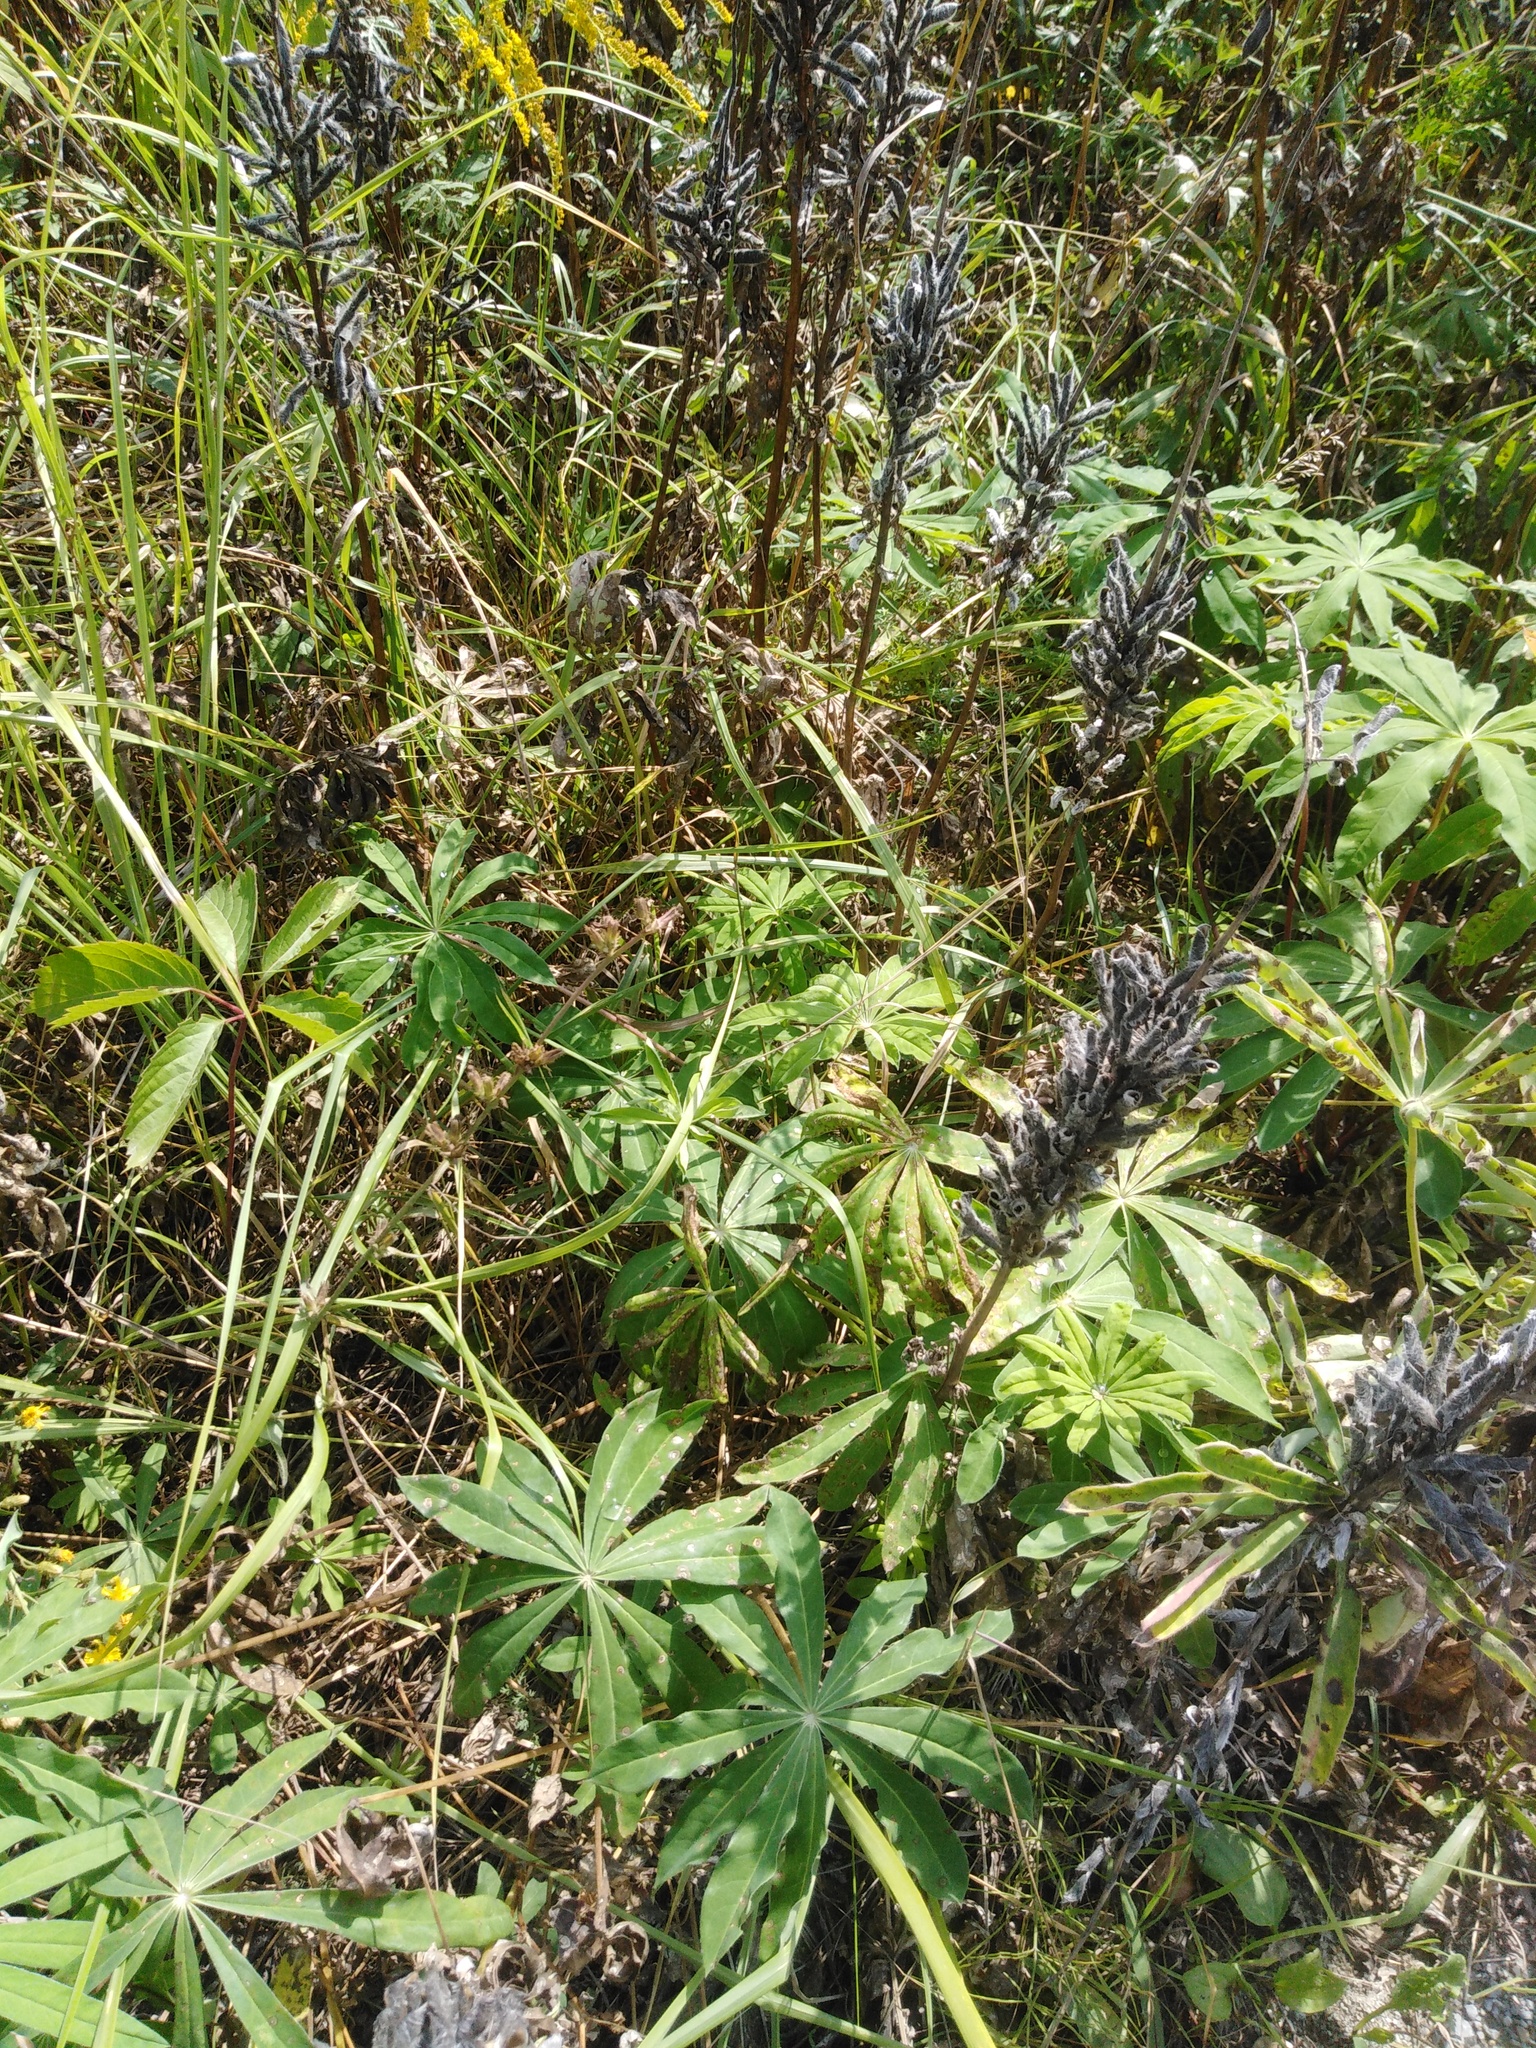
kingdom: Plantae
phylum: Tracheophyta
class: Magnoliopsida
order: Fabales
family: Fabaceae
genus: Lupinus
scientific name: Lupinus polyphyllus
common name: Garden lupin
